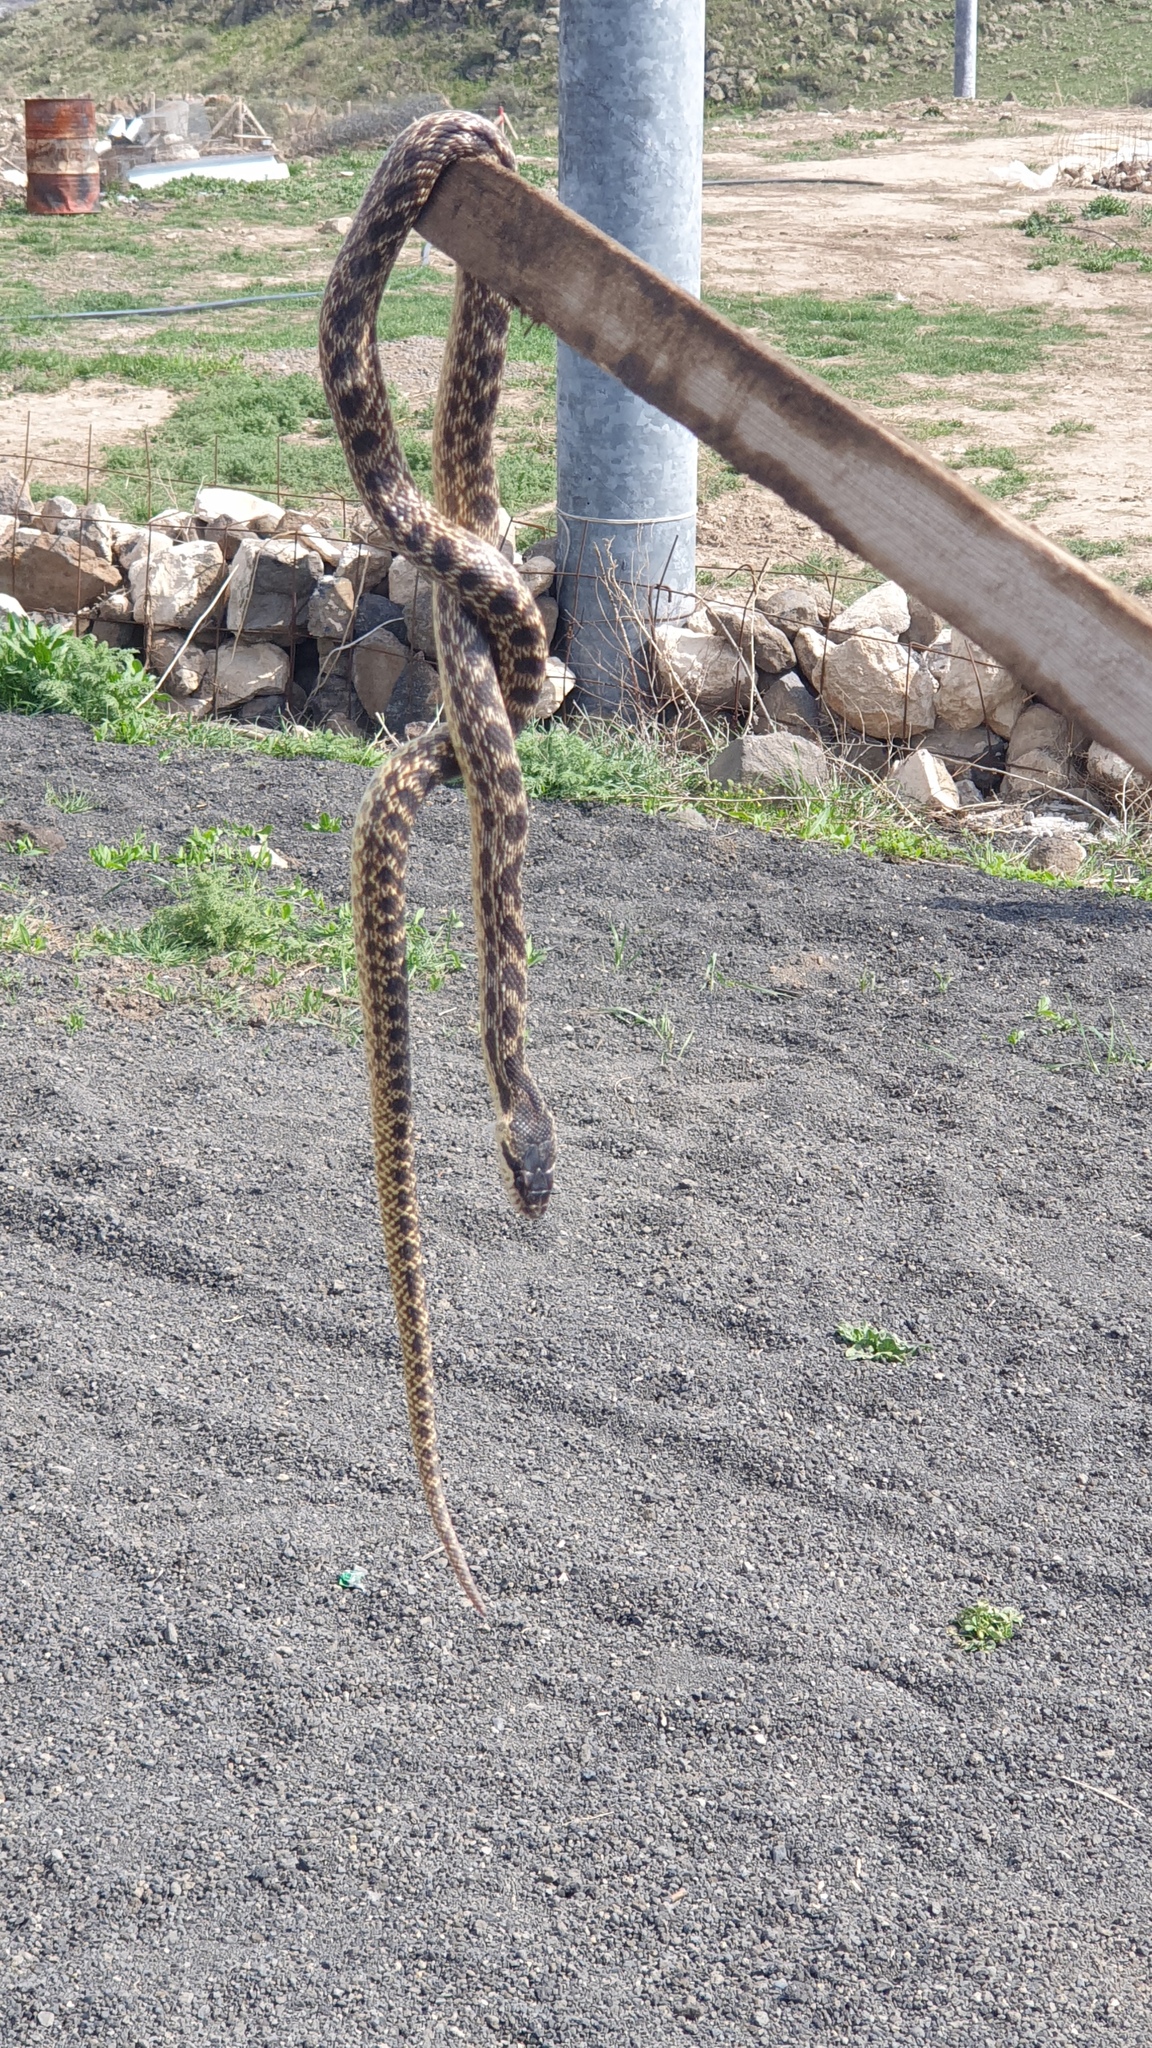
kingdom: Animalia
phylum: Chordata
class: Squamata
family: Colubridae
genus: Elaphe
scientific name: Elaphe urartica
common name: Urartian rat snake
